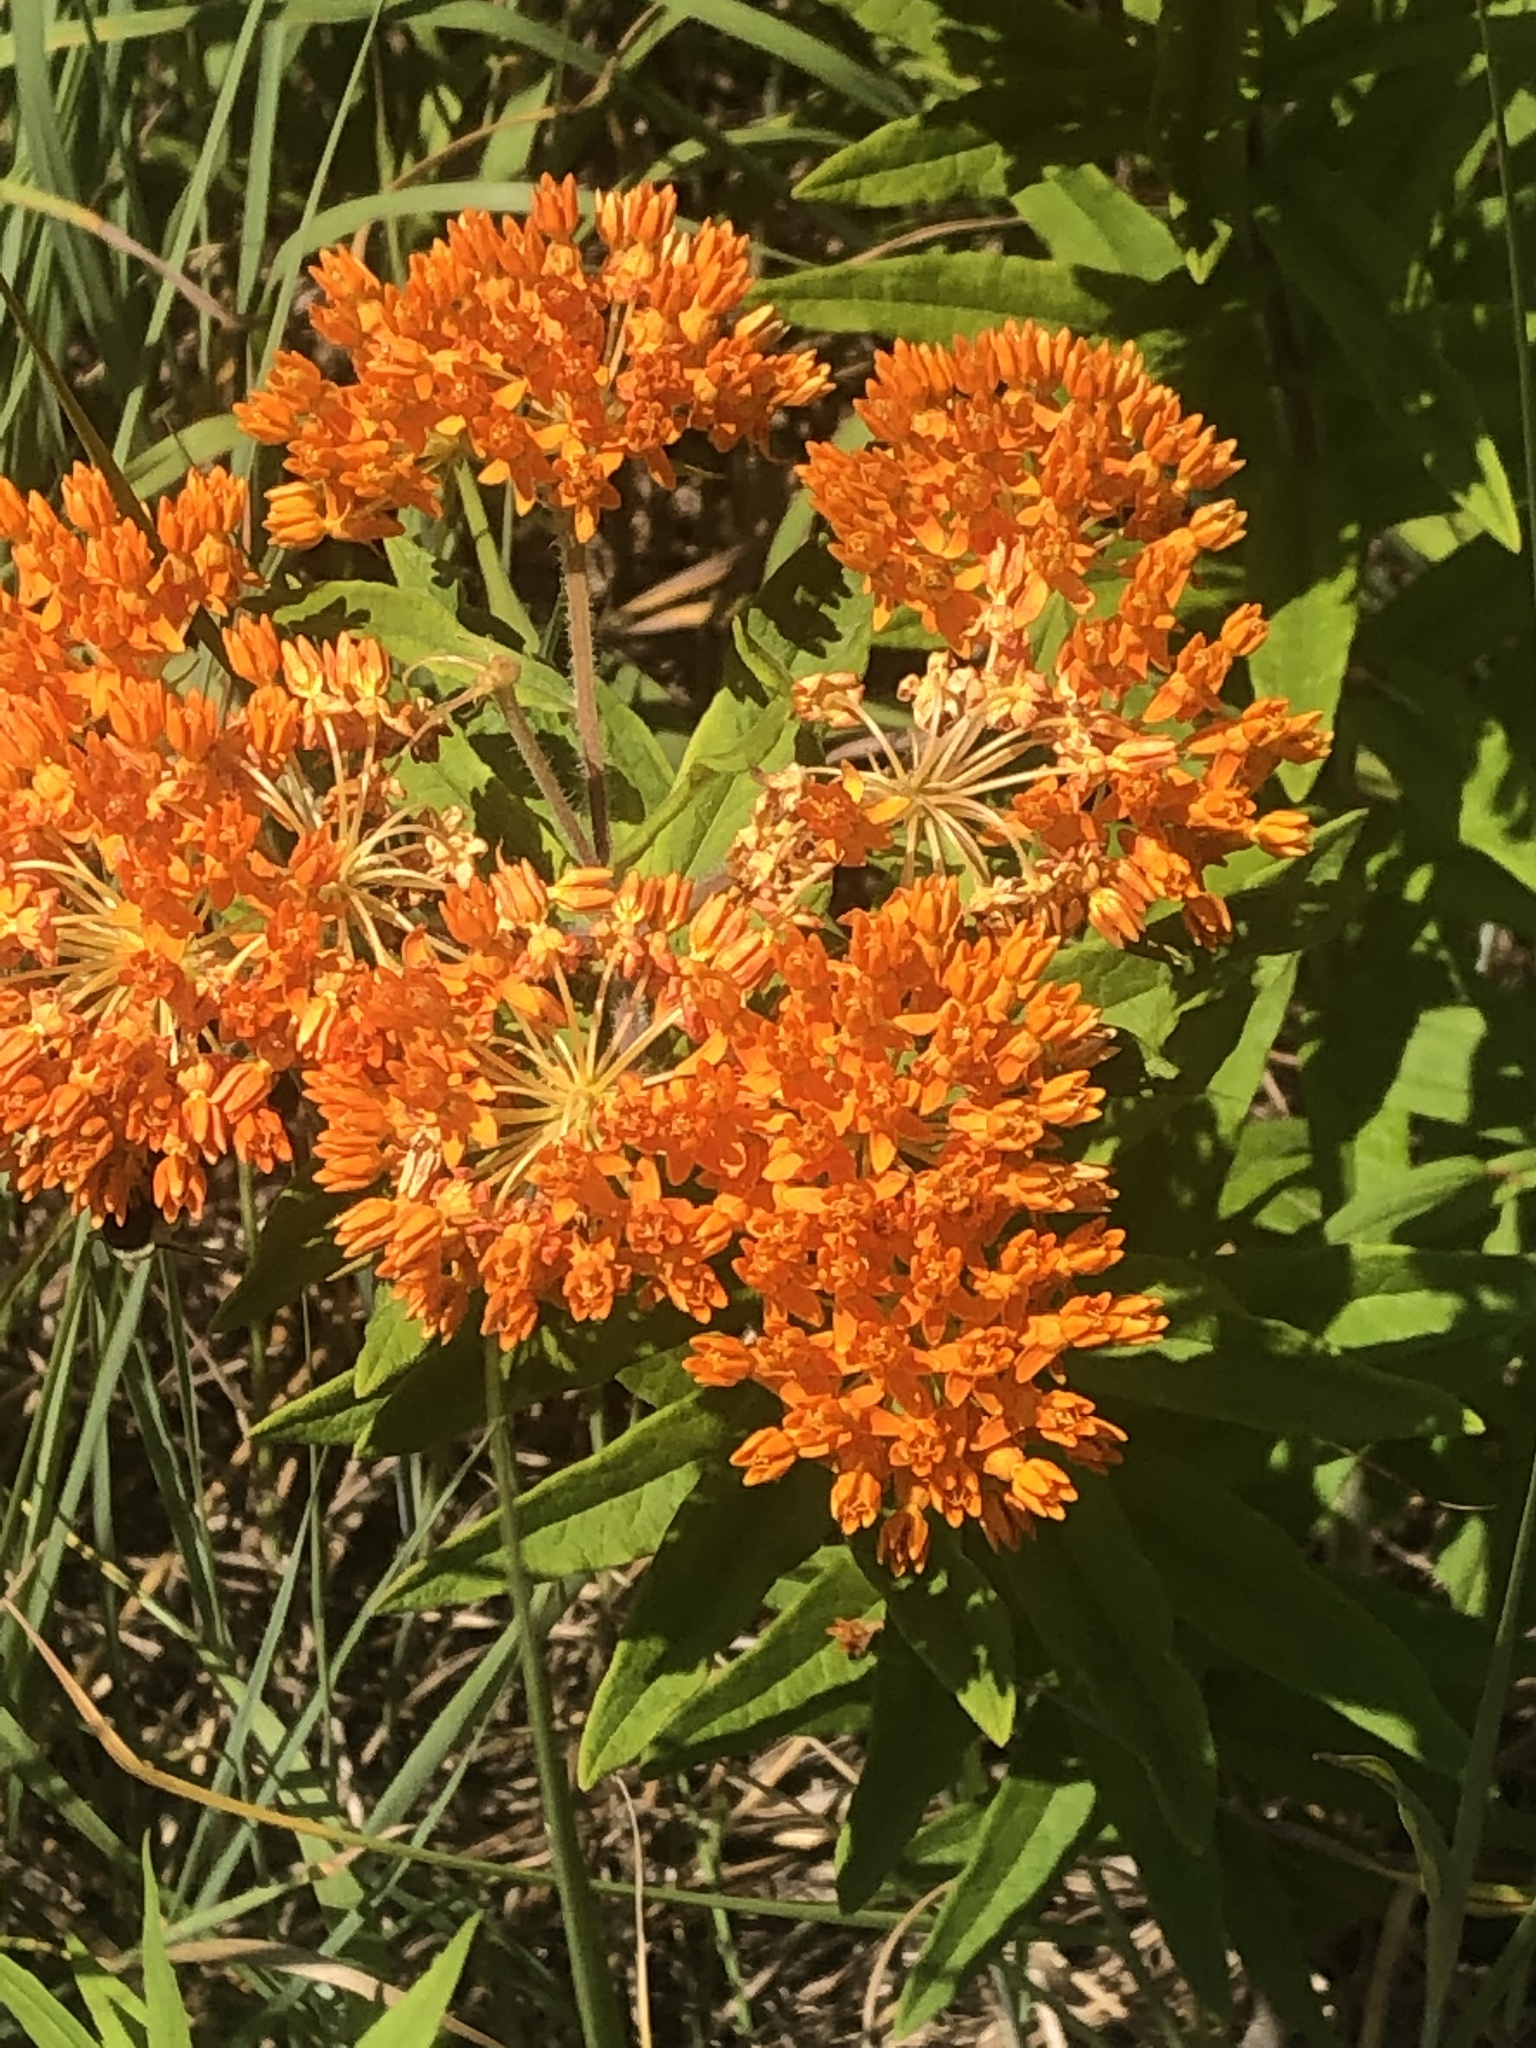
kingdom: Plantae
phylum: Tracheophyta
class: Magnoliopsida
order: Gentianales
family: Apocynaceae
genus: Asclepias
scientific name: Asclepias tuberosa
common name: Butterfly milkweed
